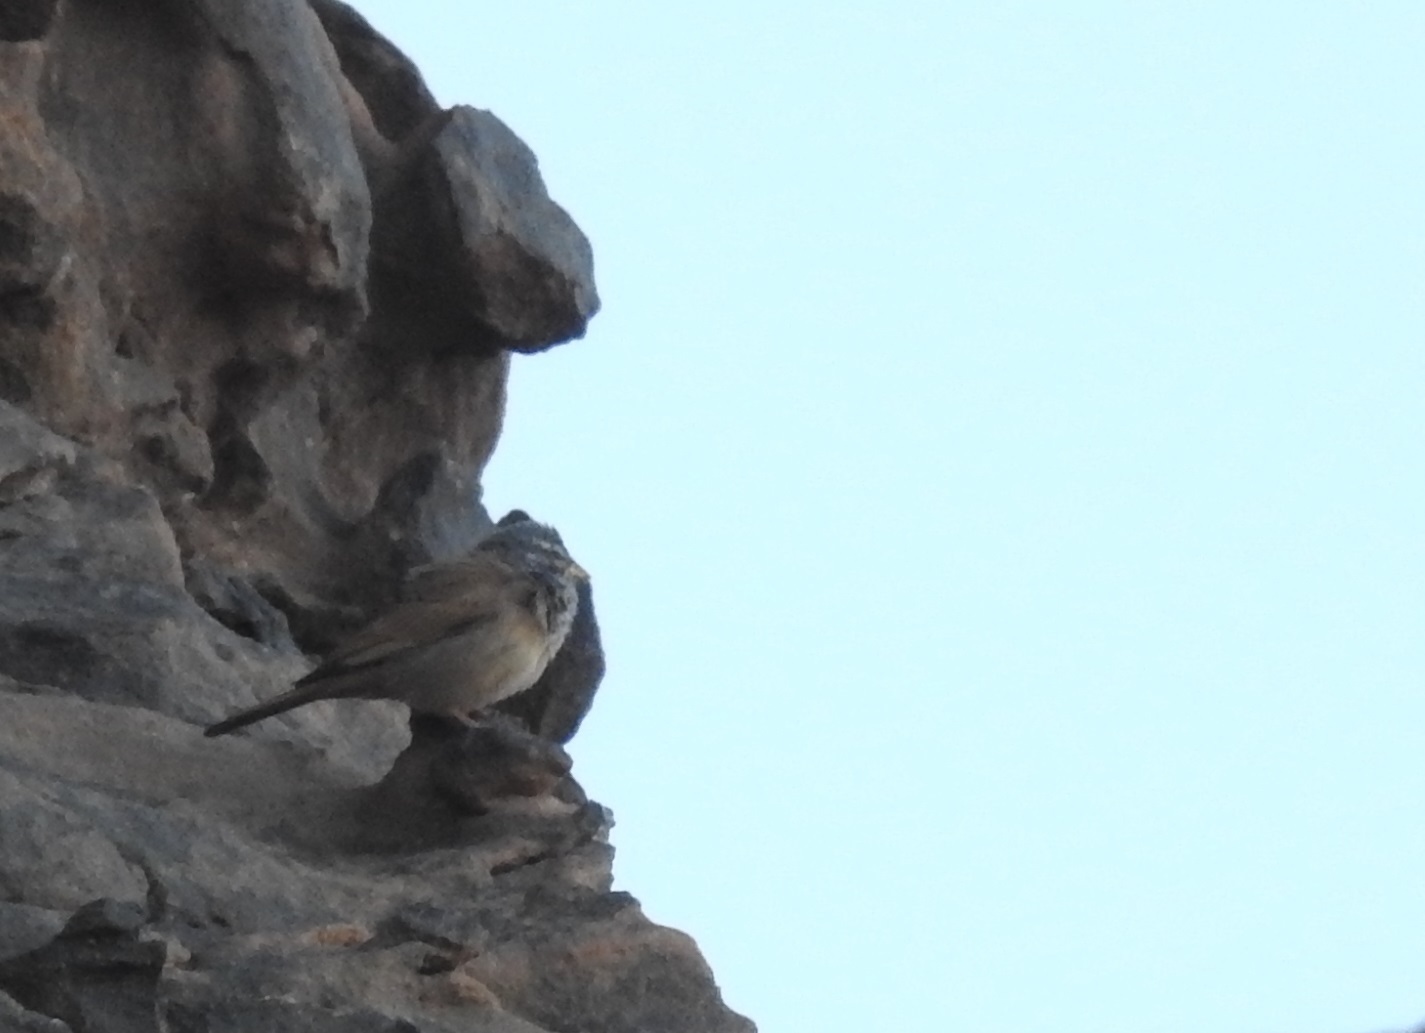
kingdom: Animalia
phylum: Chordata
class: Aves
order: Passeriformes
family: Emberizidae
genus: Emberiza
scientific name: Emberiza sahari
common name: House bunting
